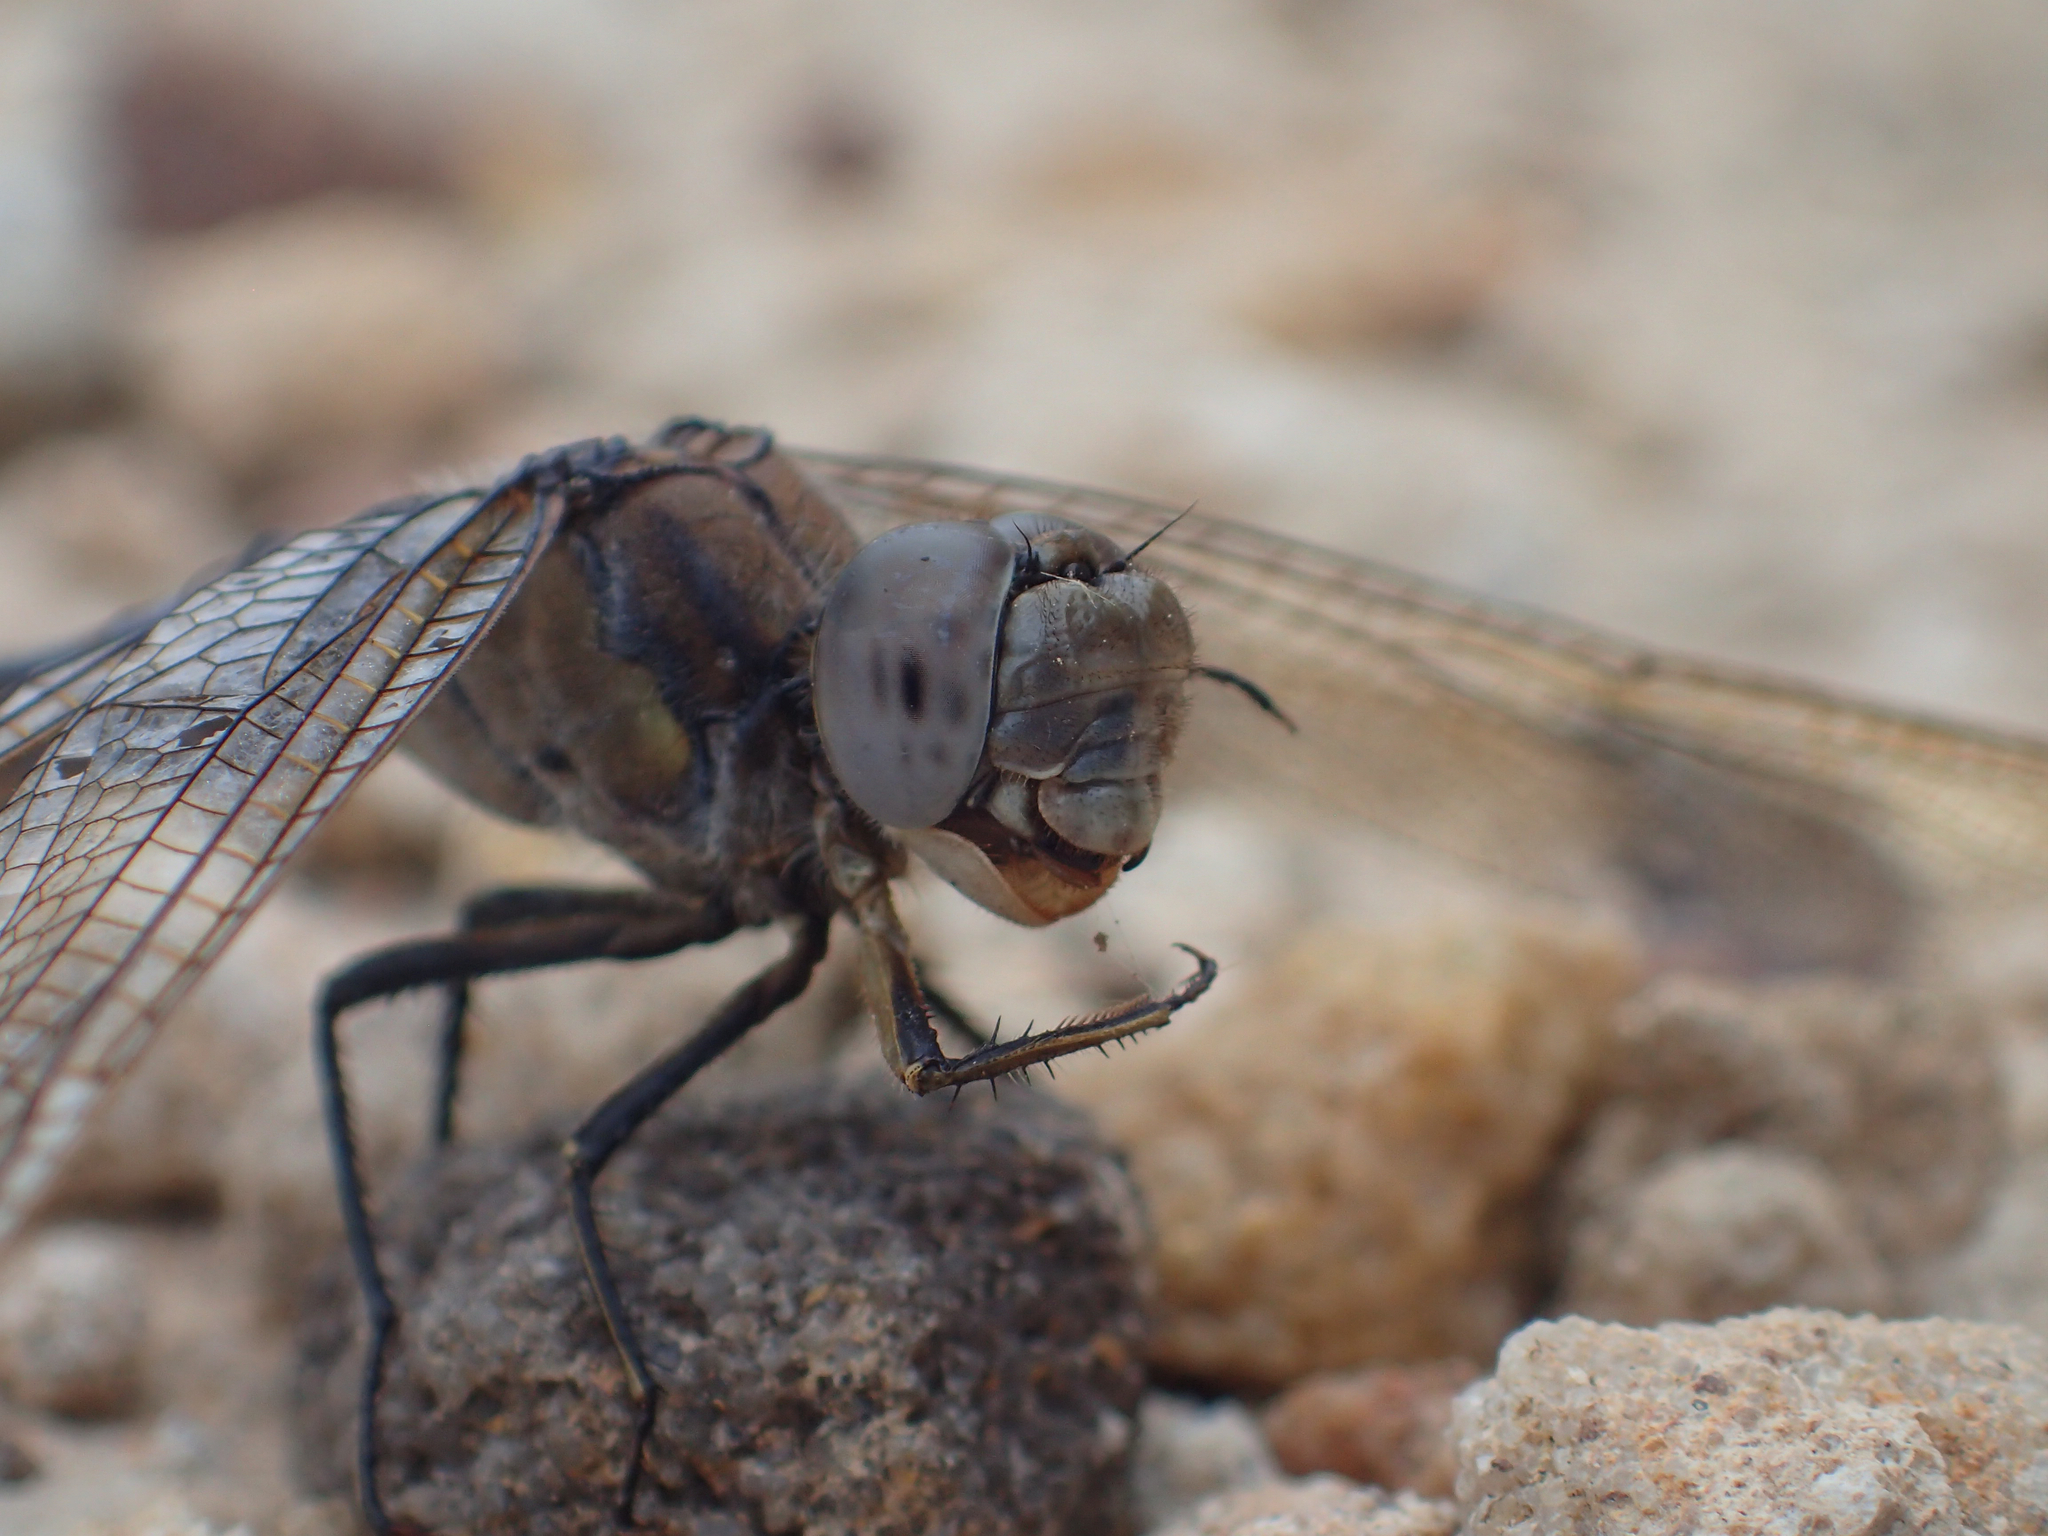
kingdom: Animalia
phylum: Arthropoda
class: Insecta
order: Odonata
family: Libellulidae
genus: Orthetrum
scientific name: Orthetrum caledonicum
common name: Blue skimmer
